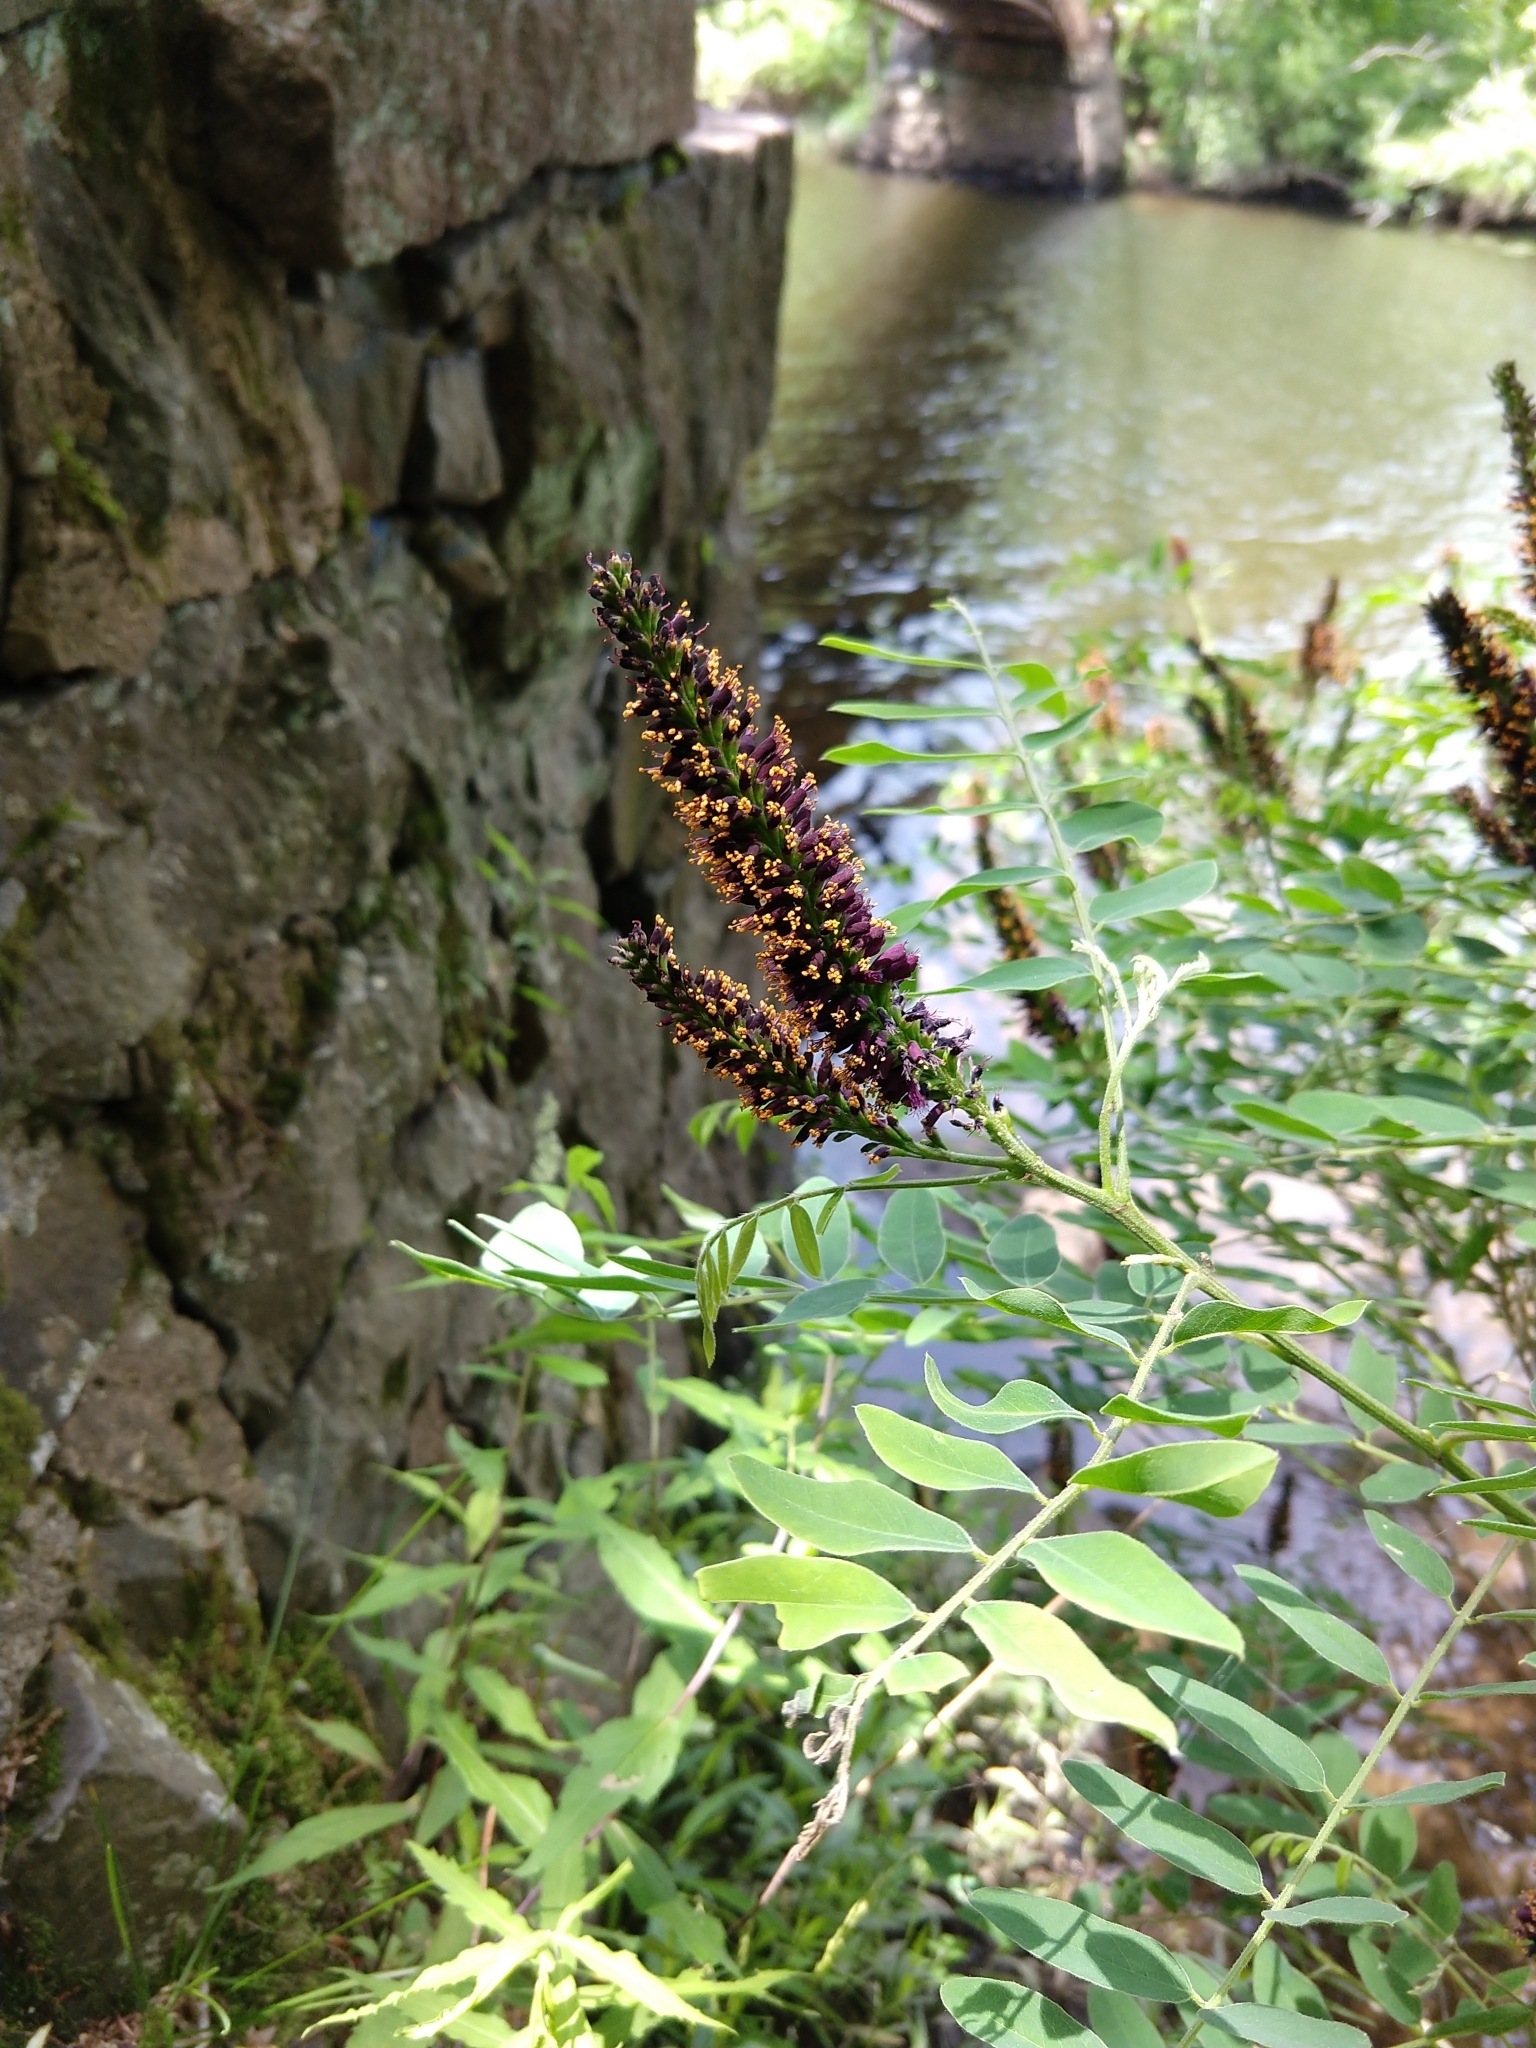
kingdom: Plantae
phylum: Tracheophyta
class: Magnoliopsida
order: Fabales
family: Fabaceae
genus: Amorpha
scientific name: Amorpha fruticosa
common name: False indigo
